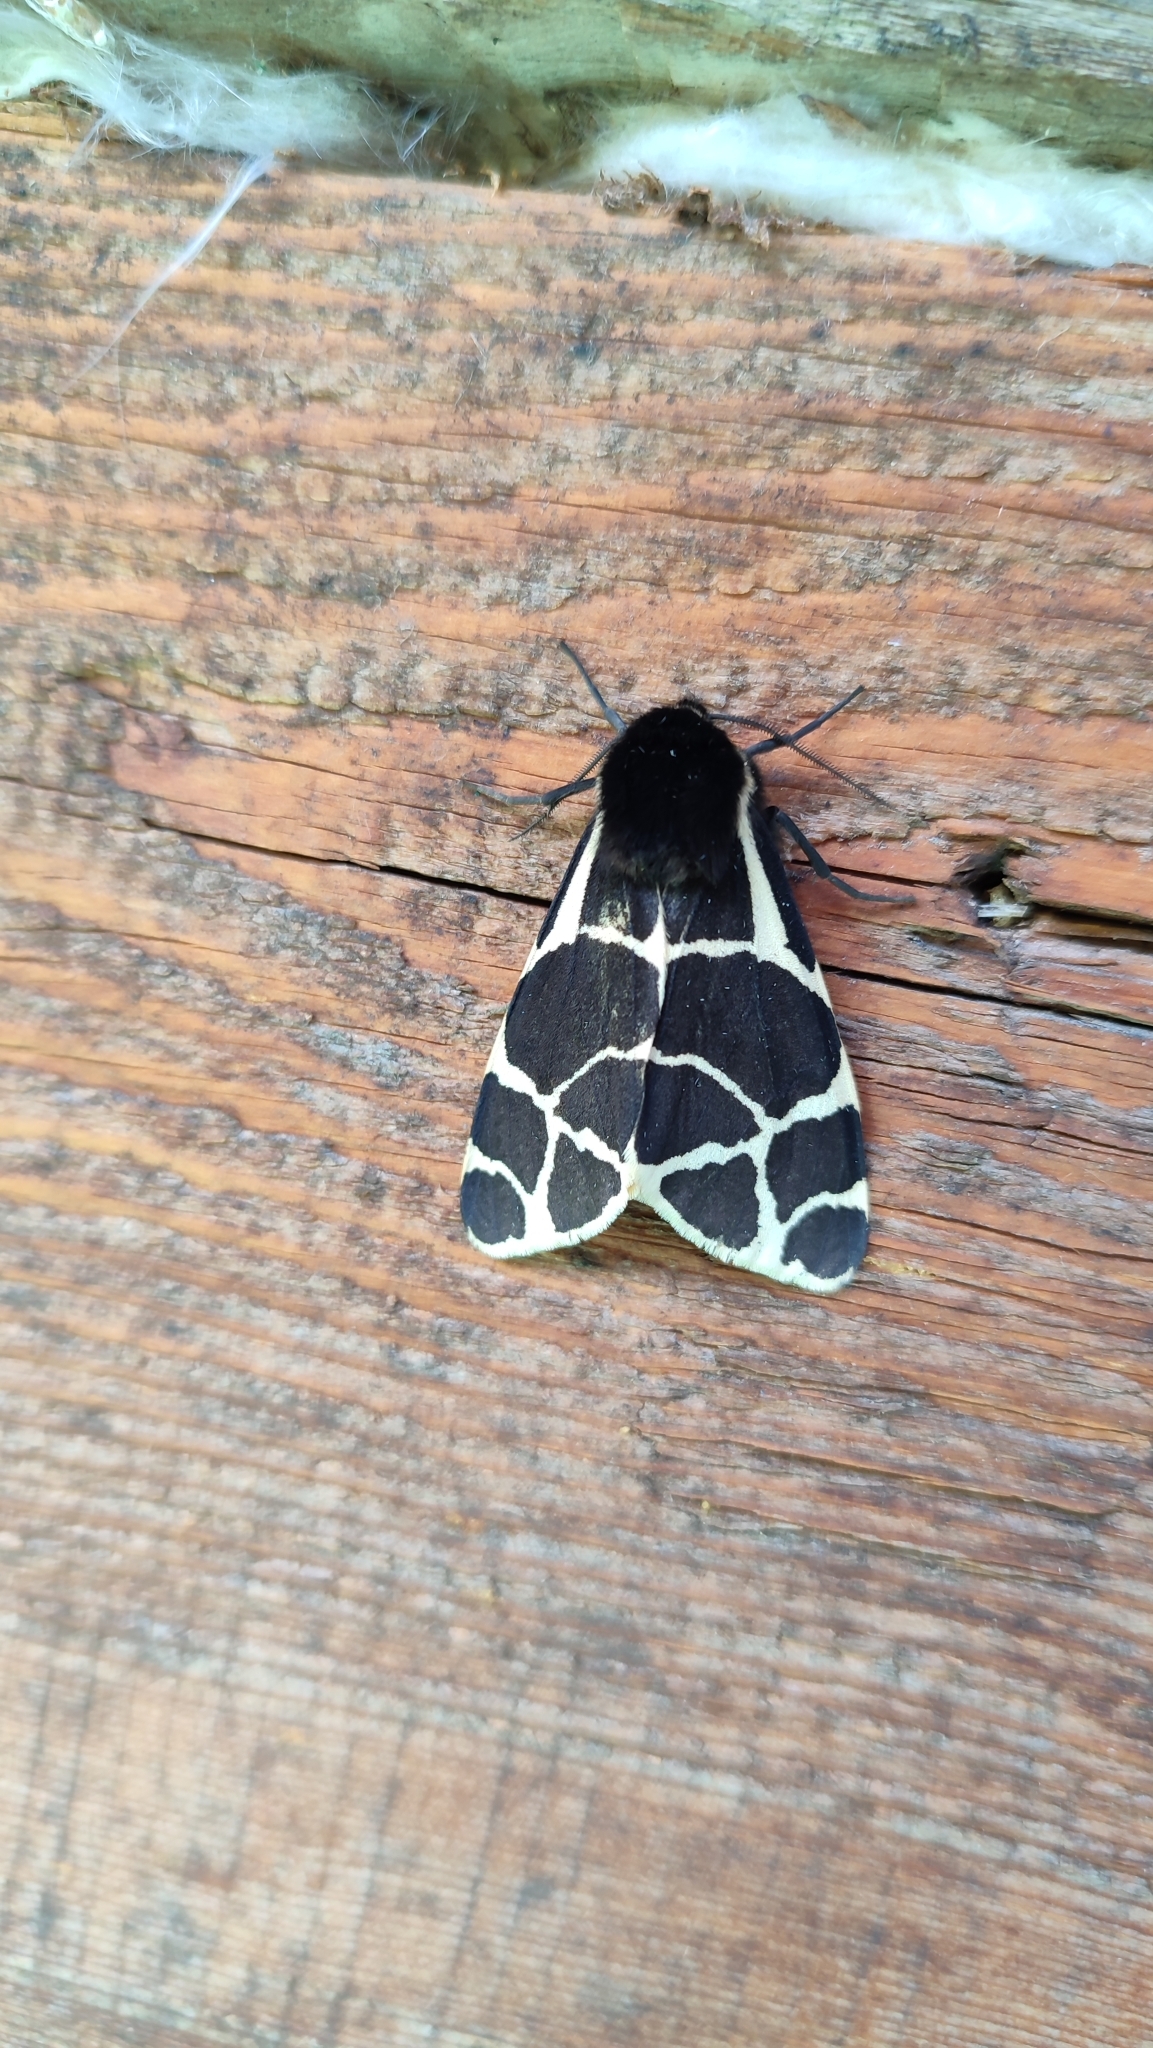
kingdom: Animalia
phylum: Arthropoda
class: Insecta
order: Lepidoptera
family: Erebidae
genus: Arctia
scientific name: Arctia flavia
